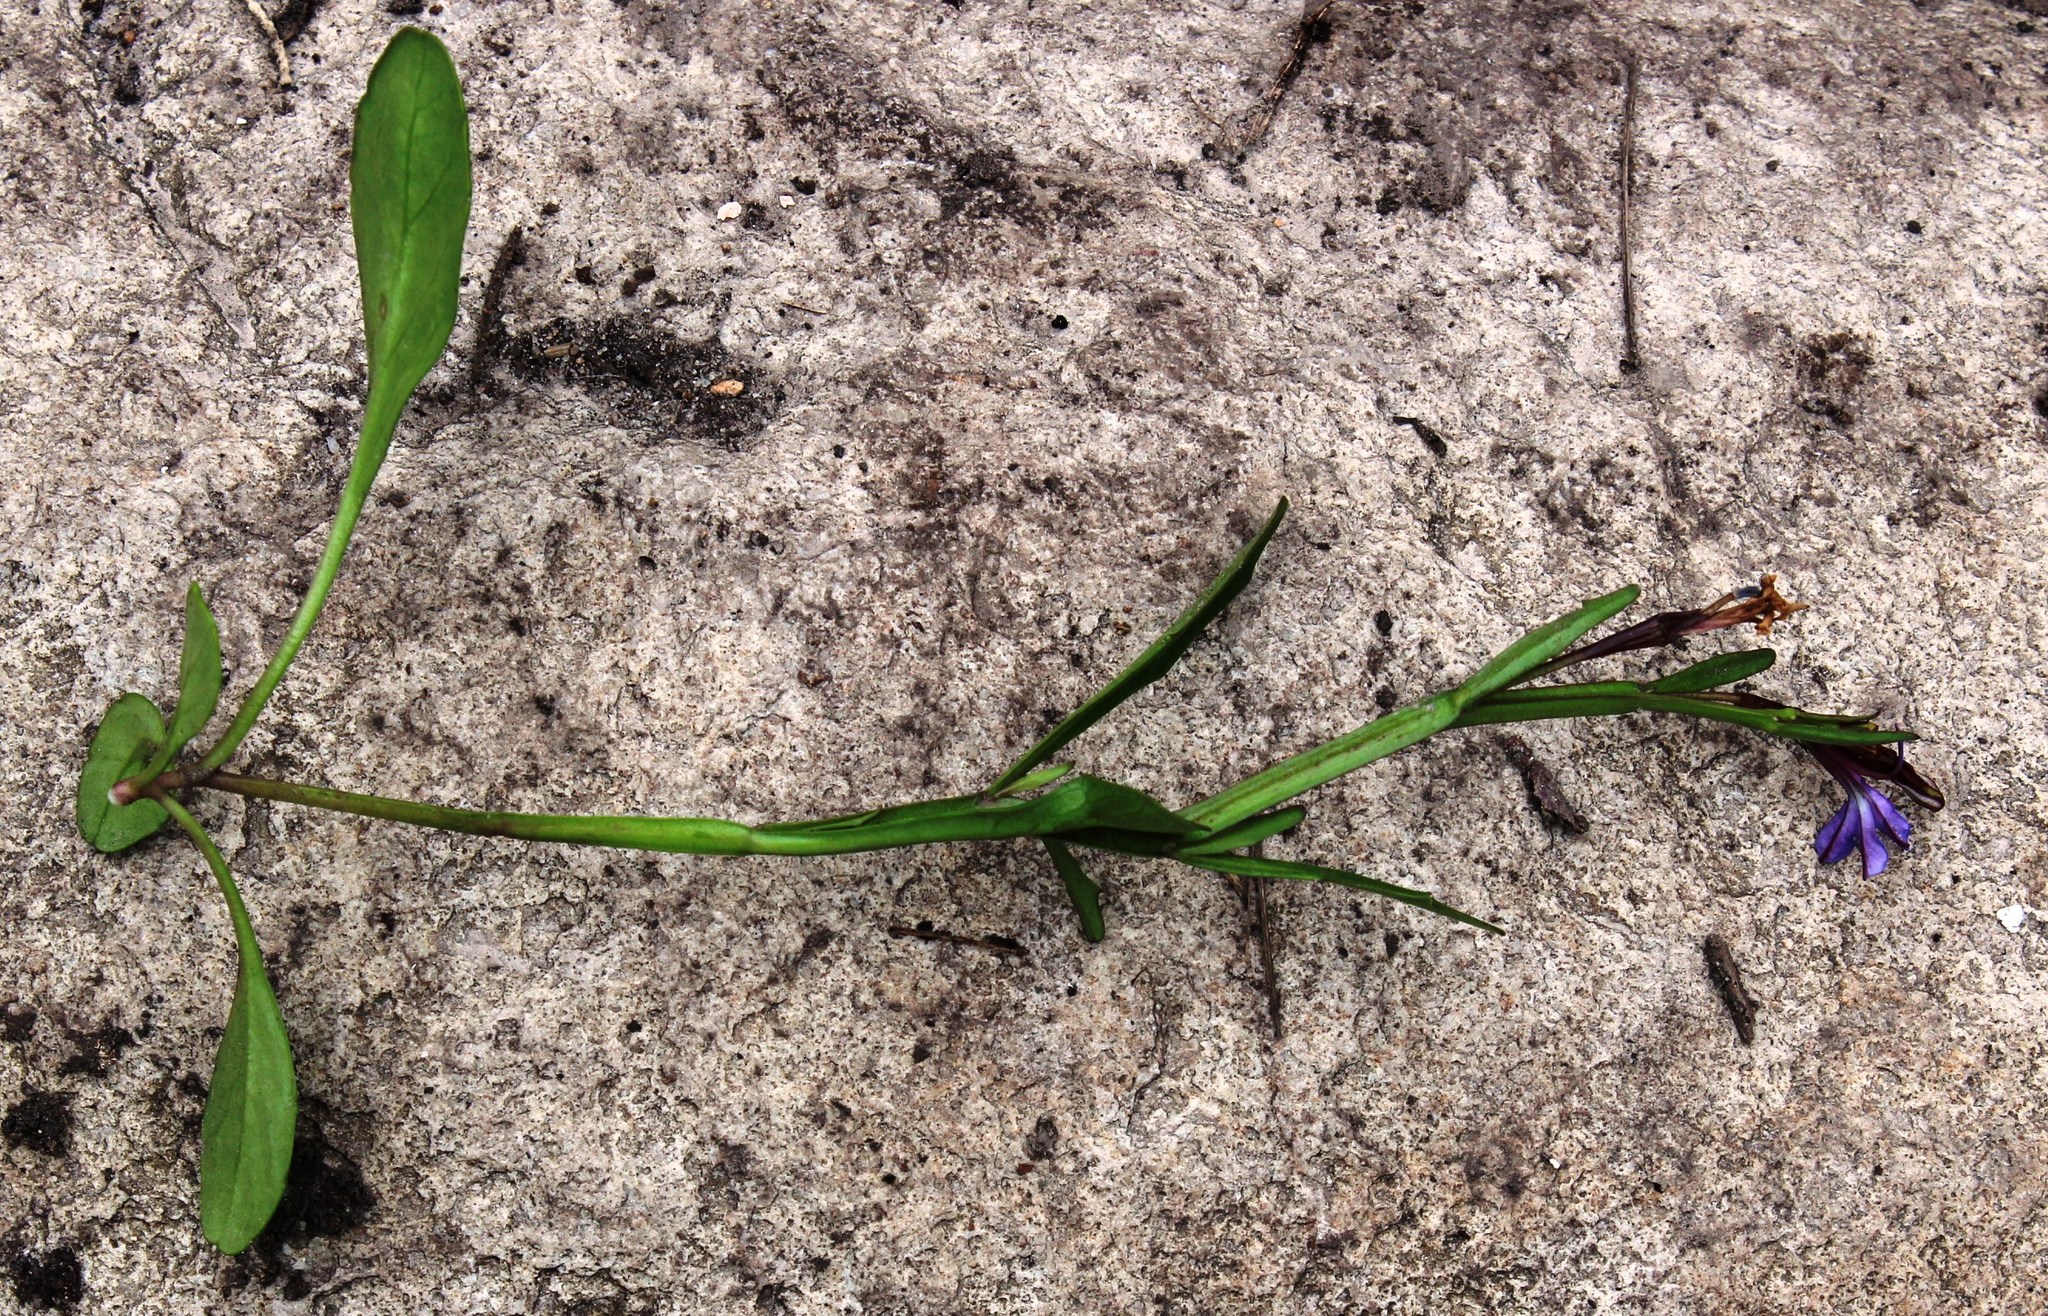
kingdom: Plantae
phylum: Tracheophyta
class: Magnoliopsida
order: Asterales
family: Campanulaceae
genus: Lobelia
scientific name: Lobelia anceps
